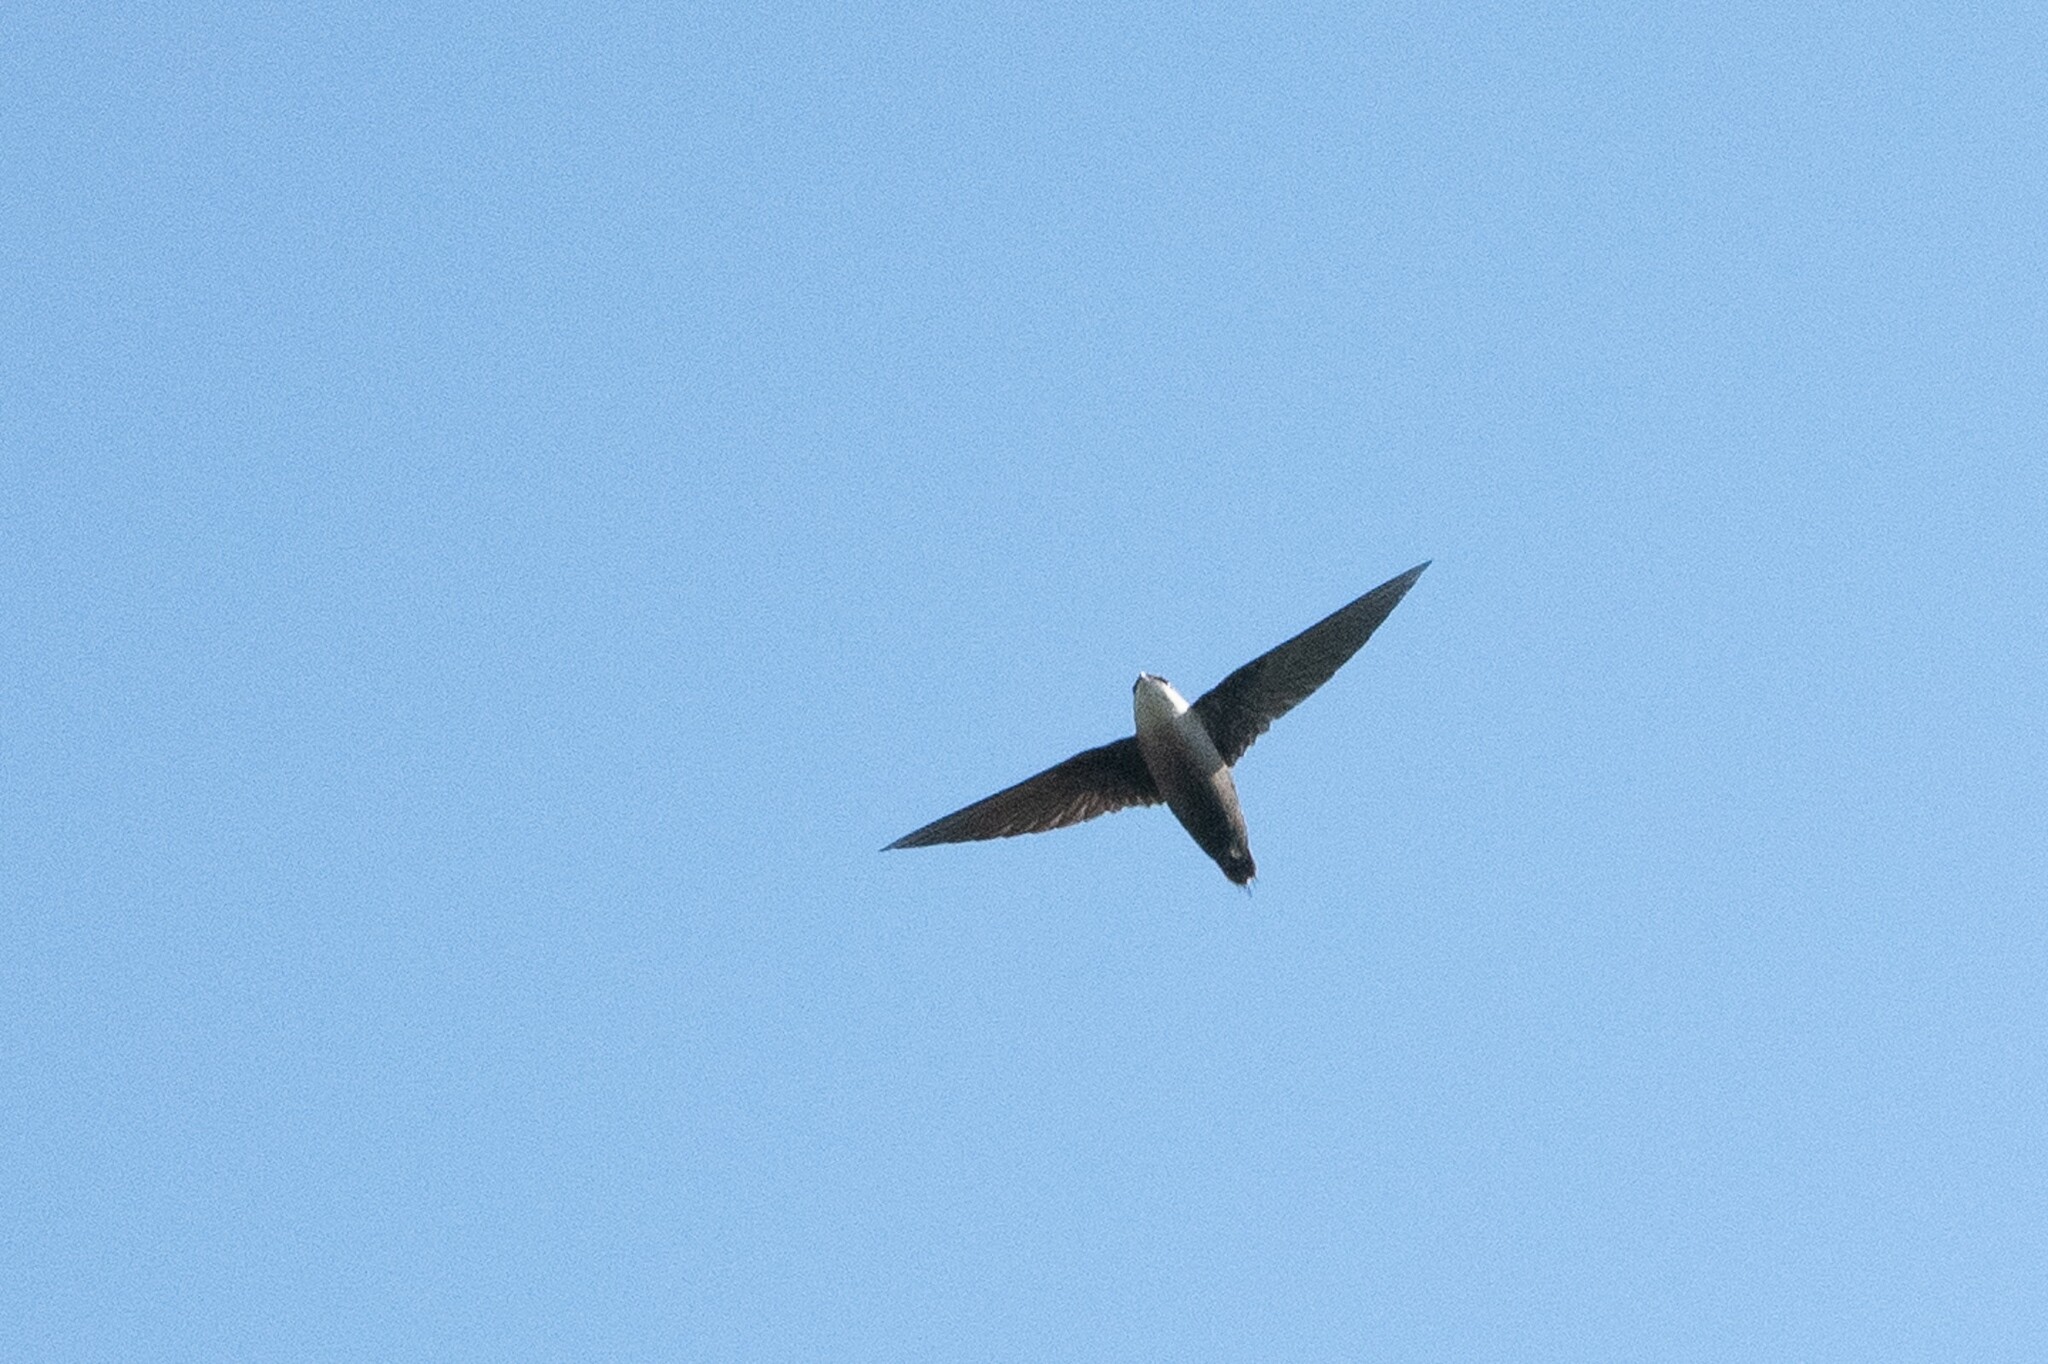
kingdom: Animalia
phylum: Chordata
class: Aves
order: Apodiformes
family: Apodidae
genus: Chaetura
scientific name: Chaetura pelagica
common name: Chimney swift
